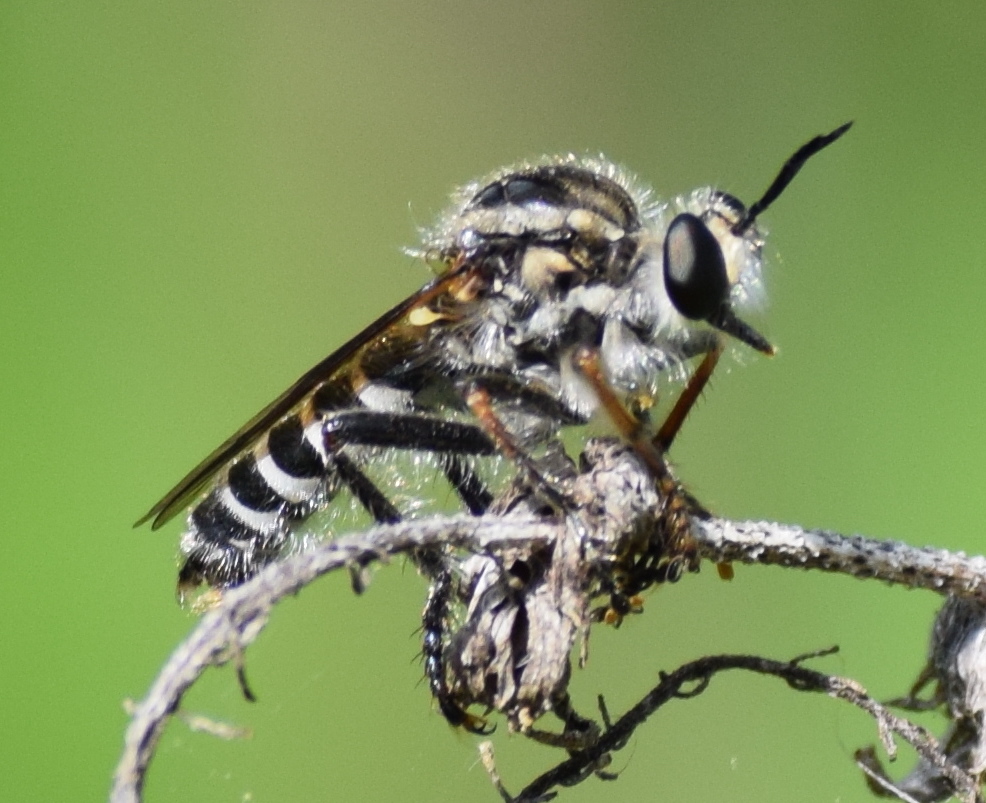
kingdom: Animalia
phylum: Arthropoda
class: Insecta
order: Diptera
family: Asilidae
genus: Ceraturgus
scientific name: Ceraturgus mitchelli
